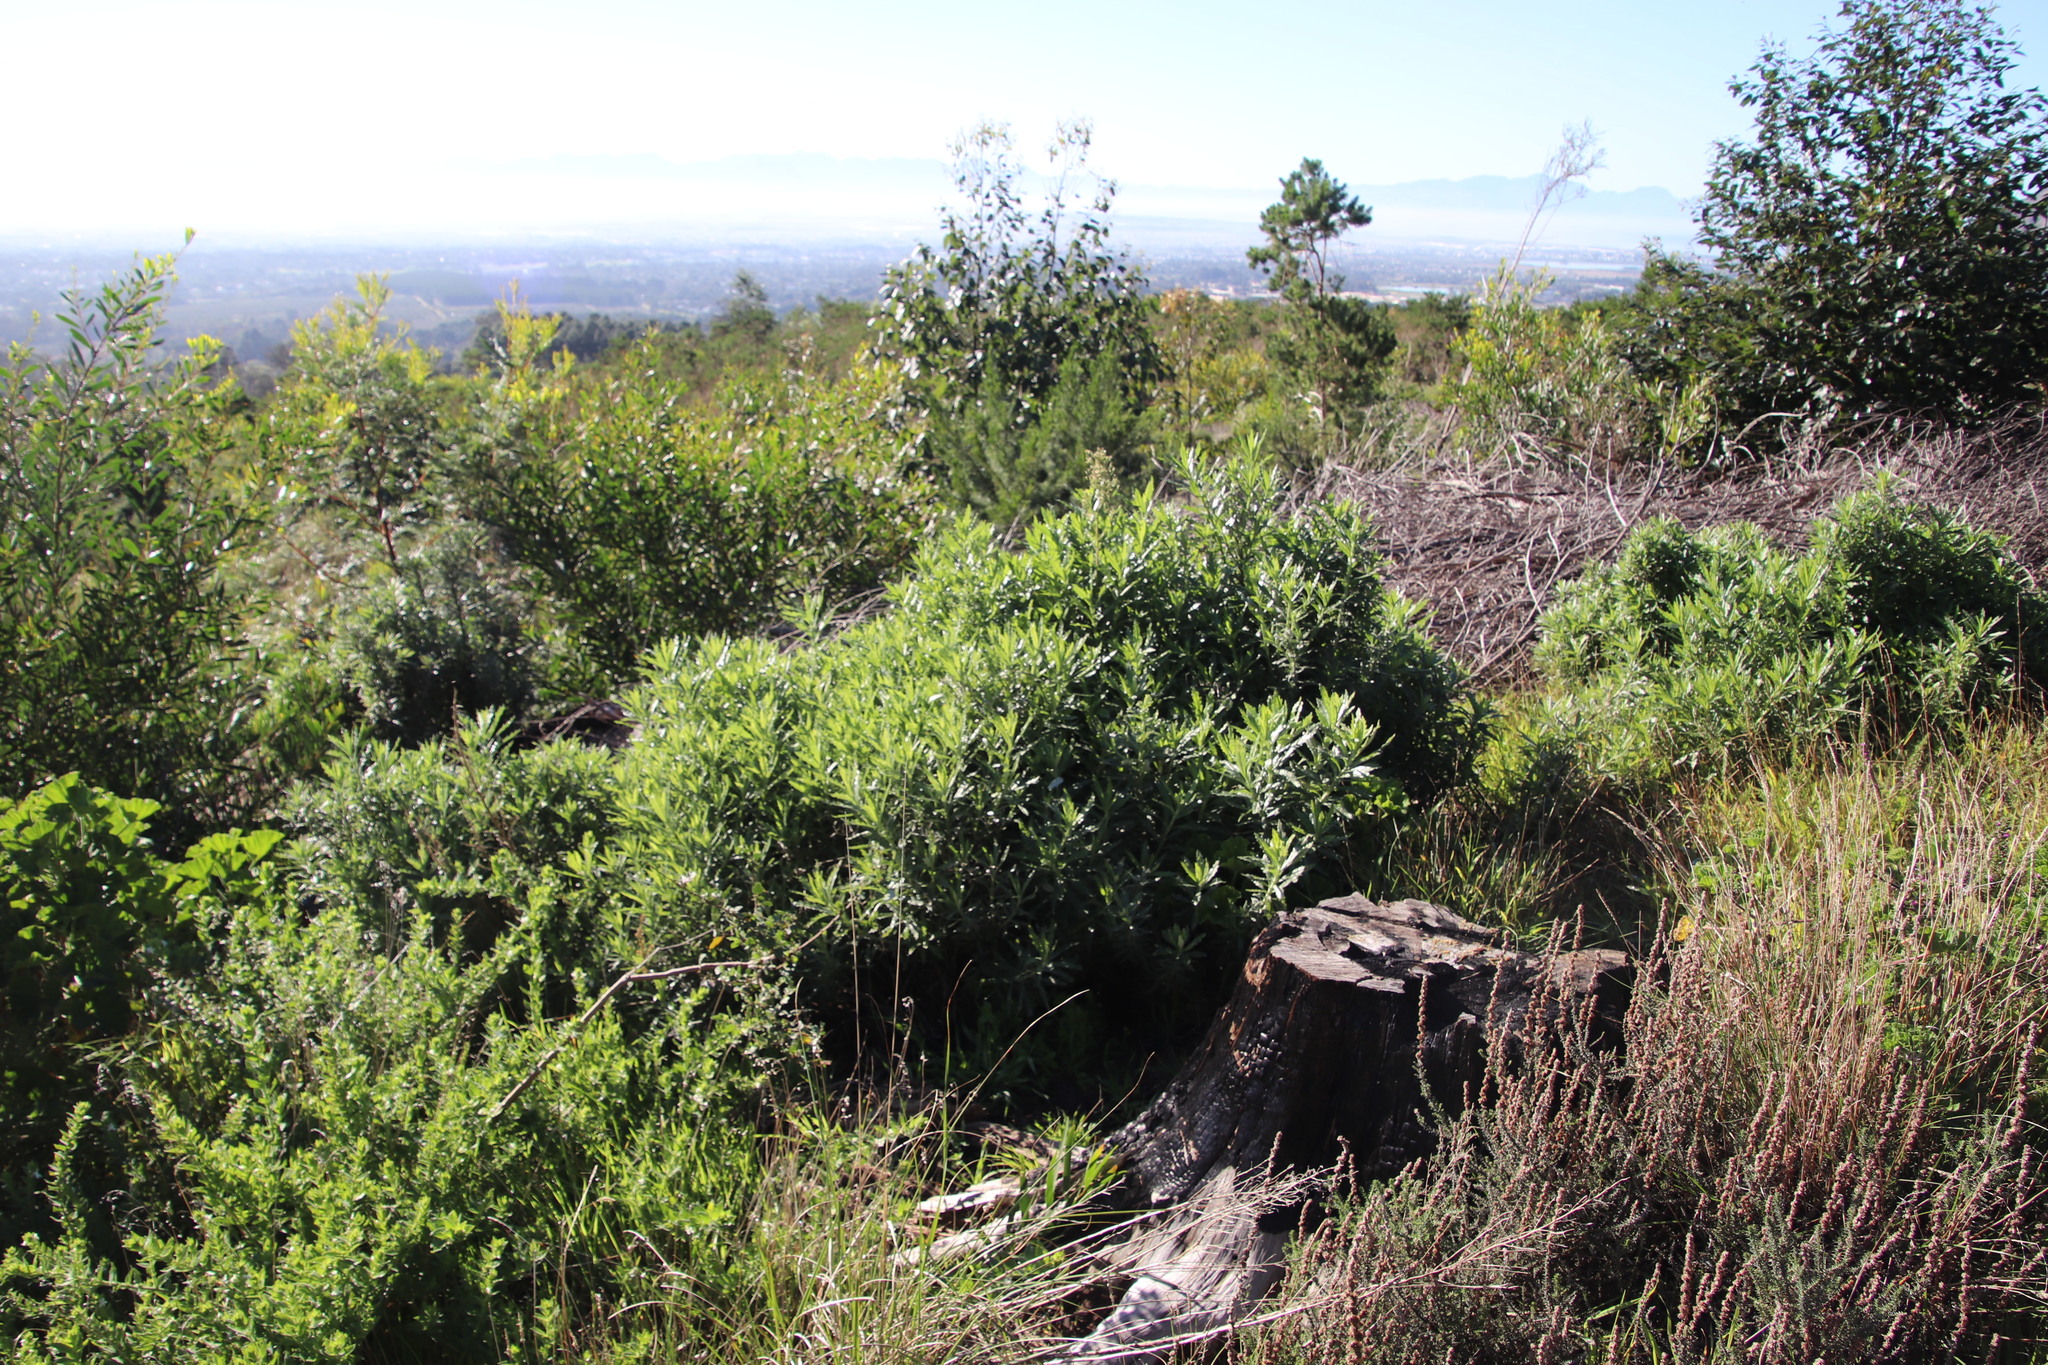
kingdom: Plantae
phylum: Tracheophyta
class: Magnoliopsida
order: Asterales
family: Asteraceae
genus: Senecio
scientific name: Senecio pterophorus
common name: Shoddy ragwort
